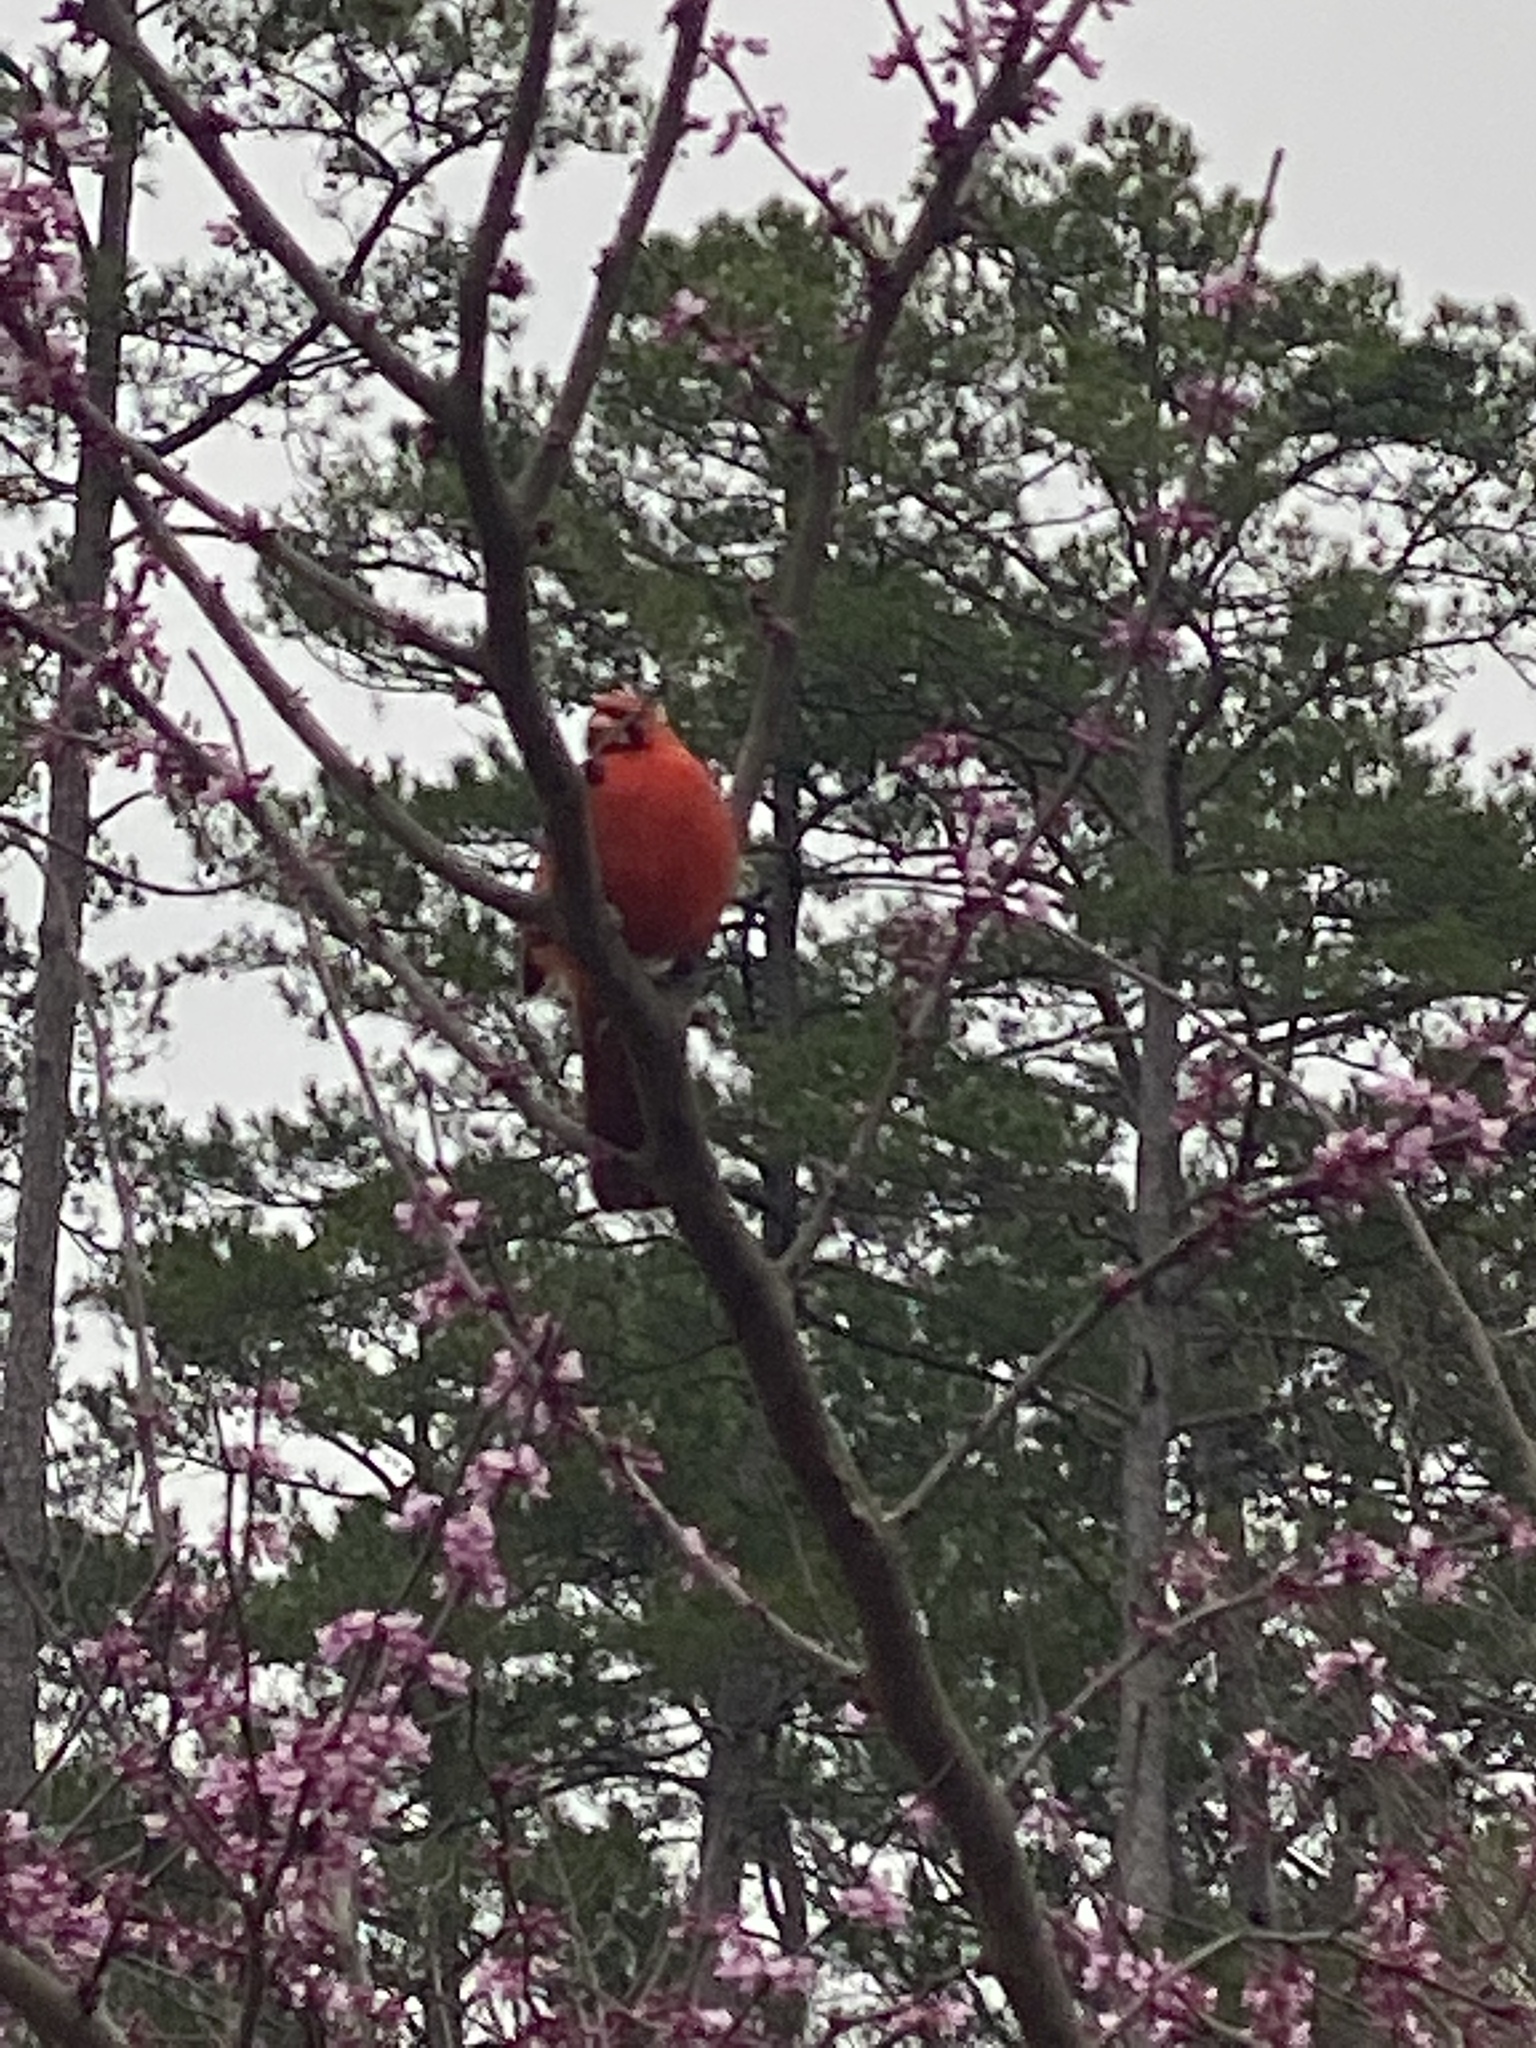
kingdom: Animalia
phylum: Chordata
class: Aves
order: Passeriformes
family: Cardinalidae
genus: Cardinalis
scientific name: Cardinalis cardinalis
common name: Northern cardinal
